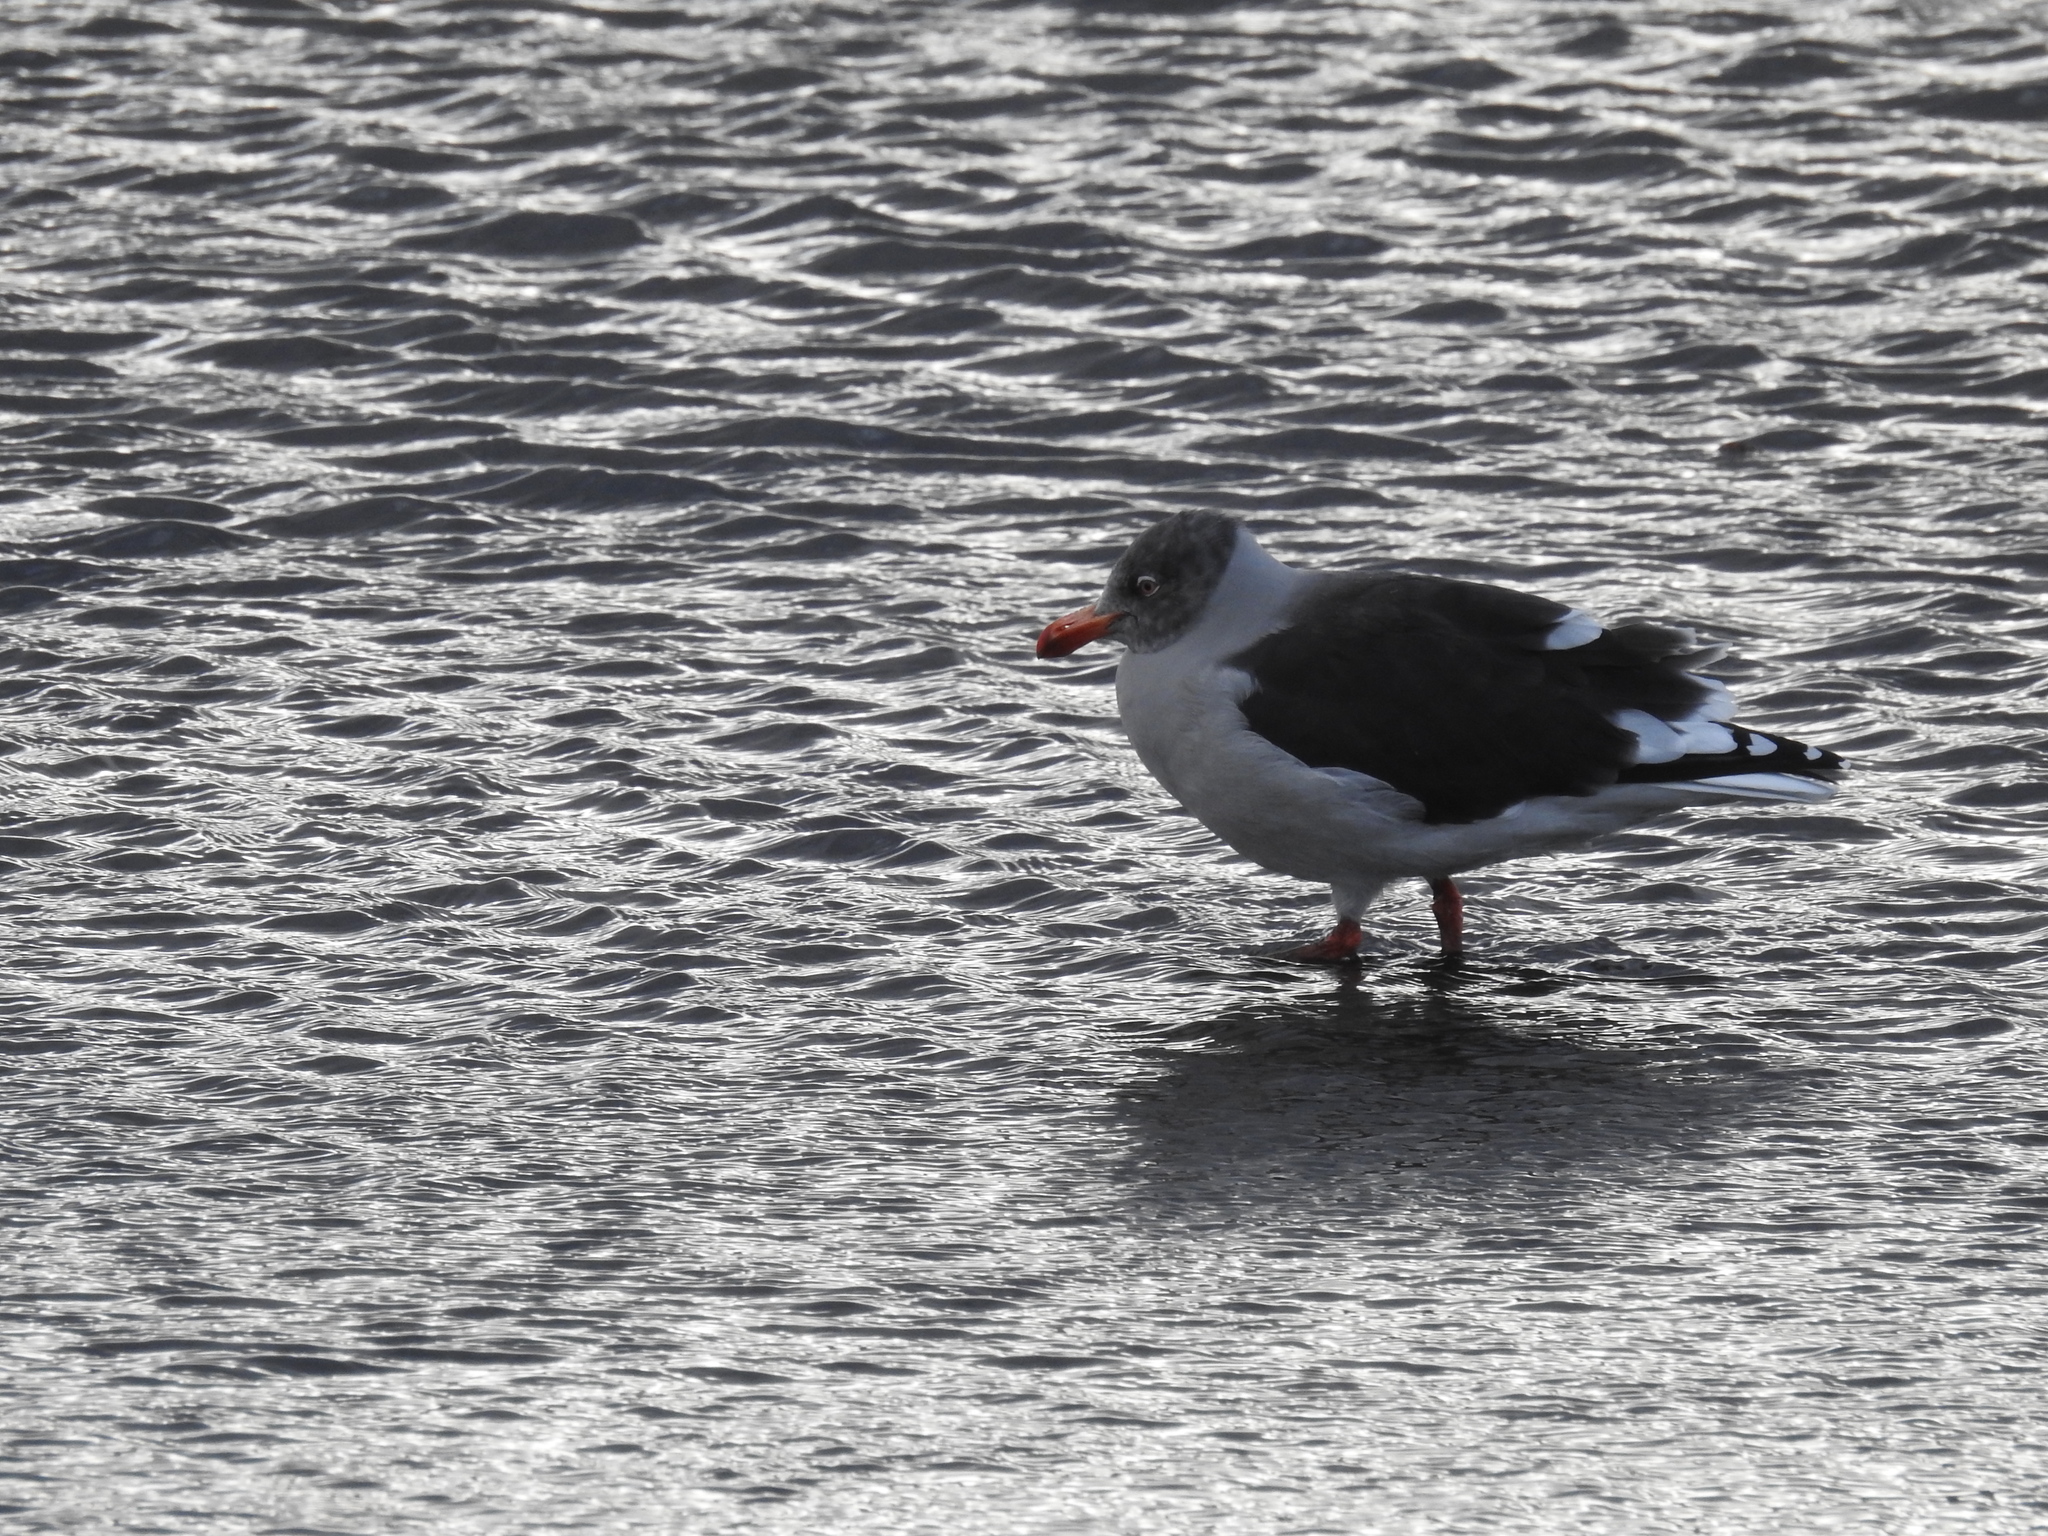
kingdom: Animalia
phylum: Chordata
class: Aves
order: Charadriiformes
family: Laridae
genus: Leucophaeus
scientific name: Leucophaeus scoresbii
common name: Dolphin gull
